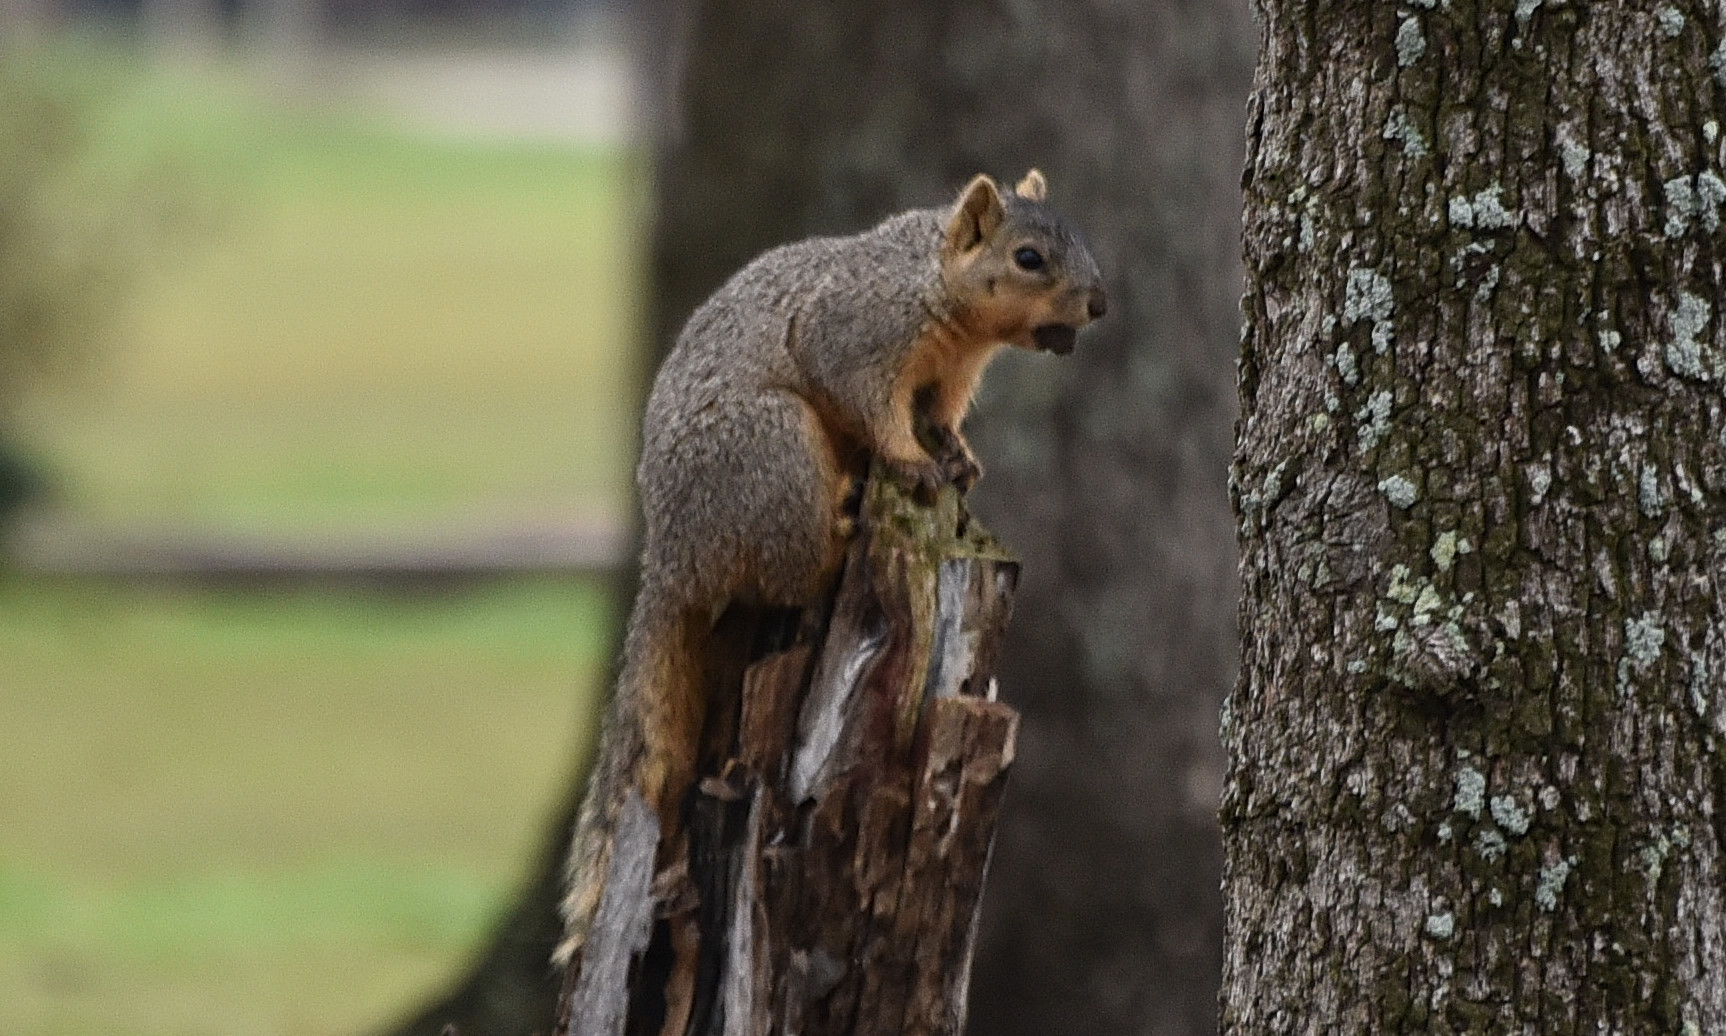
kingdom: Animalia
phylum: Chordata
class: Mammalia
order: Rodentia
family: Sciuridae
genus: Sciurus
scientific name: Sciurus niger
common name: Fox squirrel
